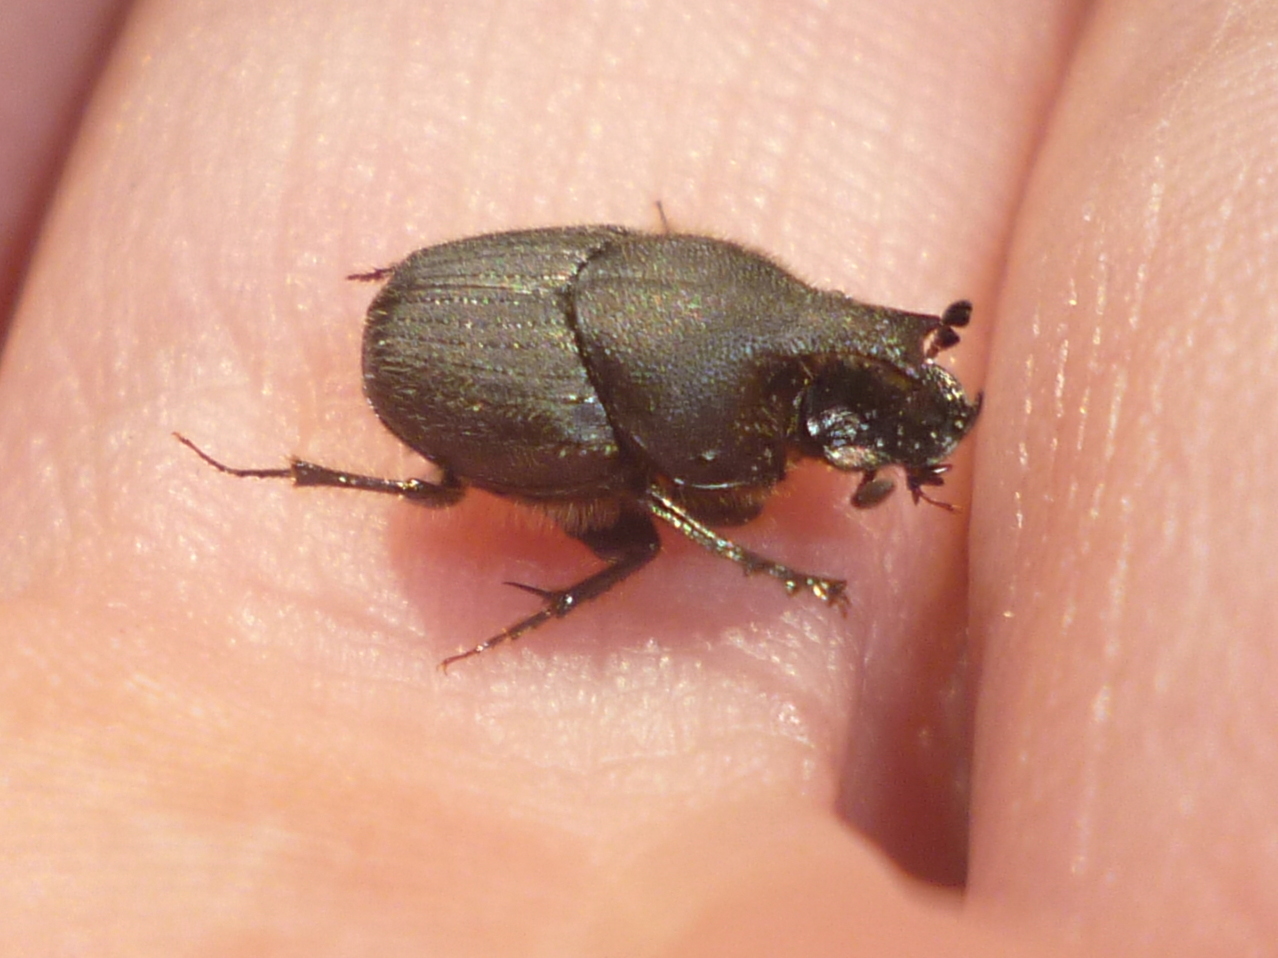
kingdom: Animalia
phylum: Arthropoda
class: Insecta
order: Coleoptera
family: Scarabaeidae
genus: Onthophagus
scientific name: Onthophagus hecate
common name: Scooped scarab
